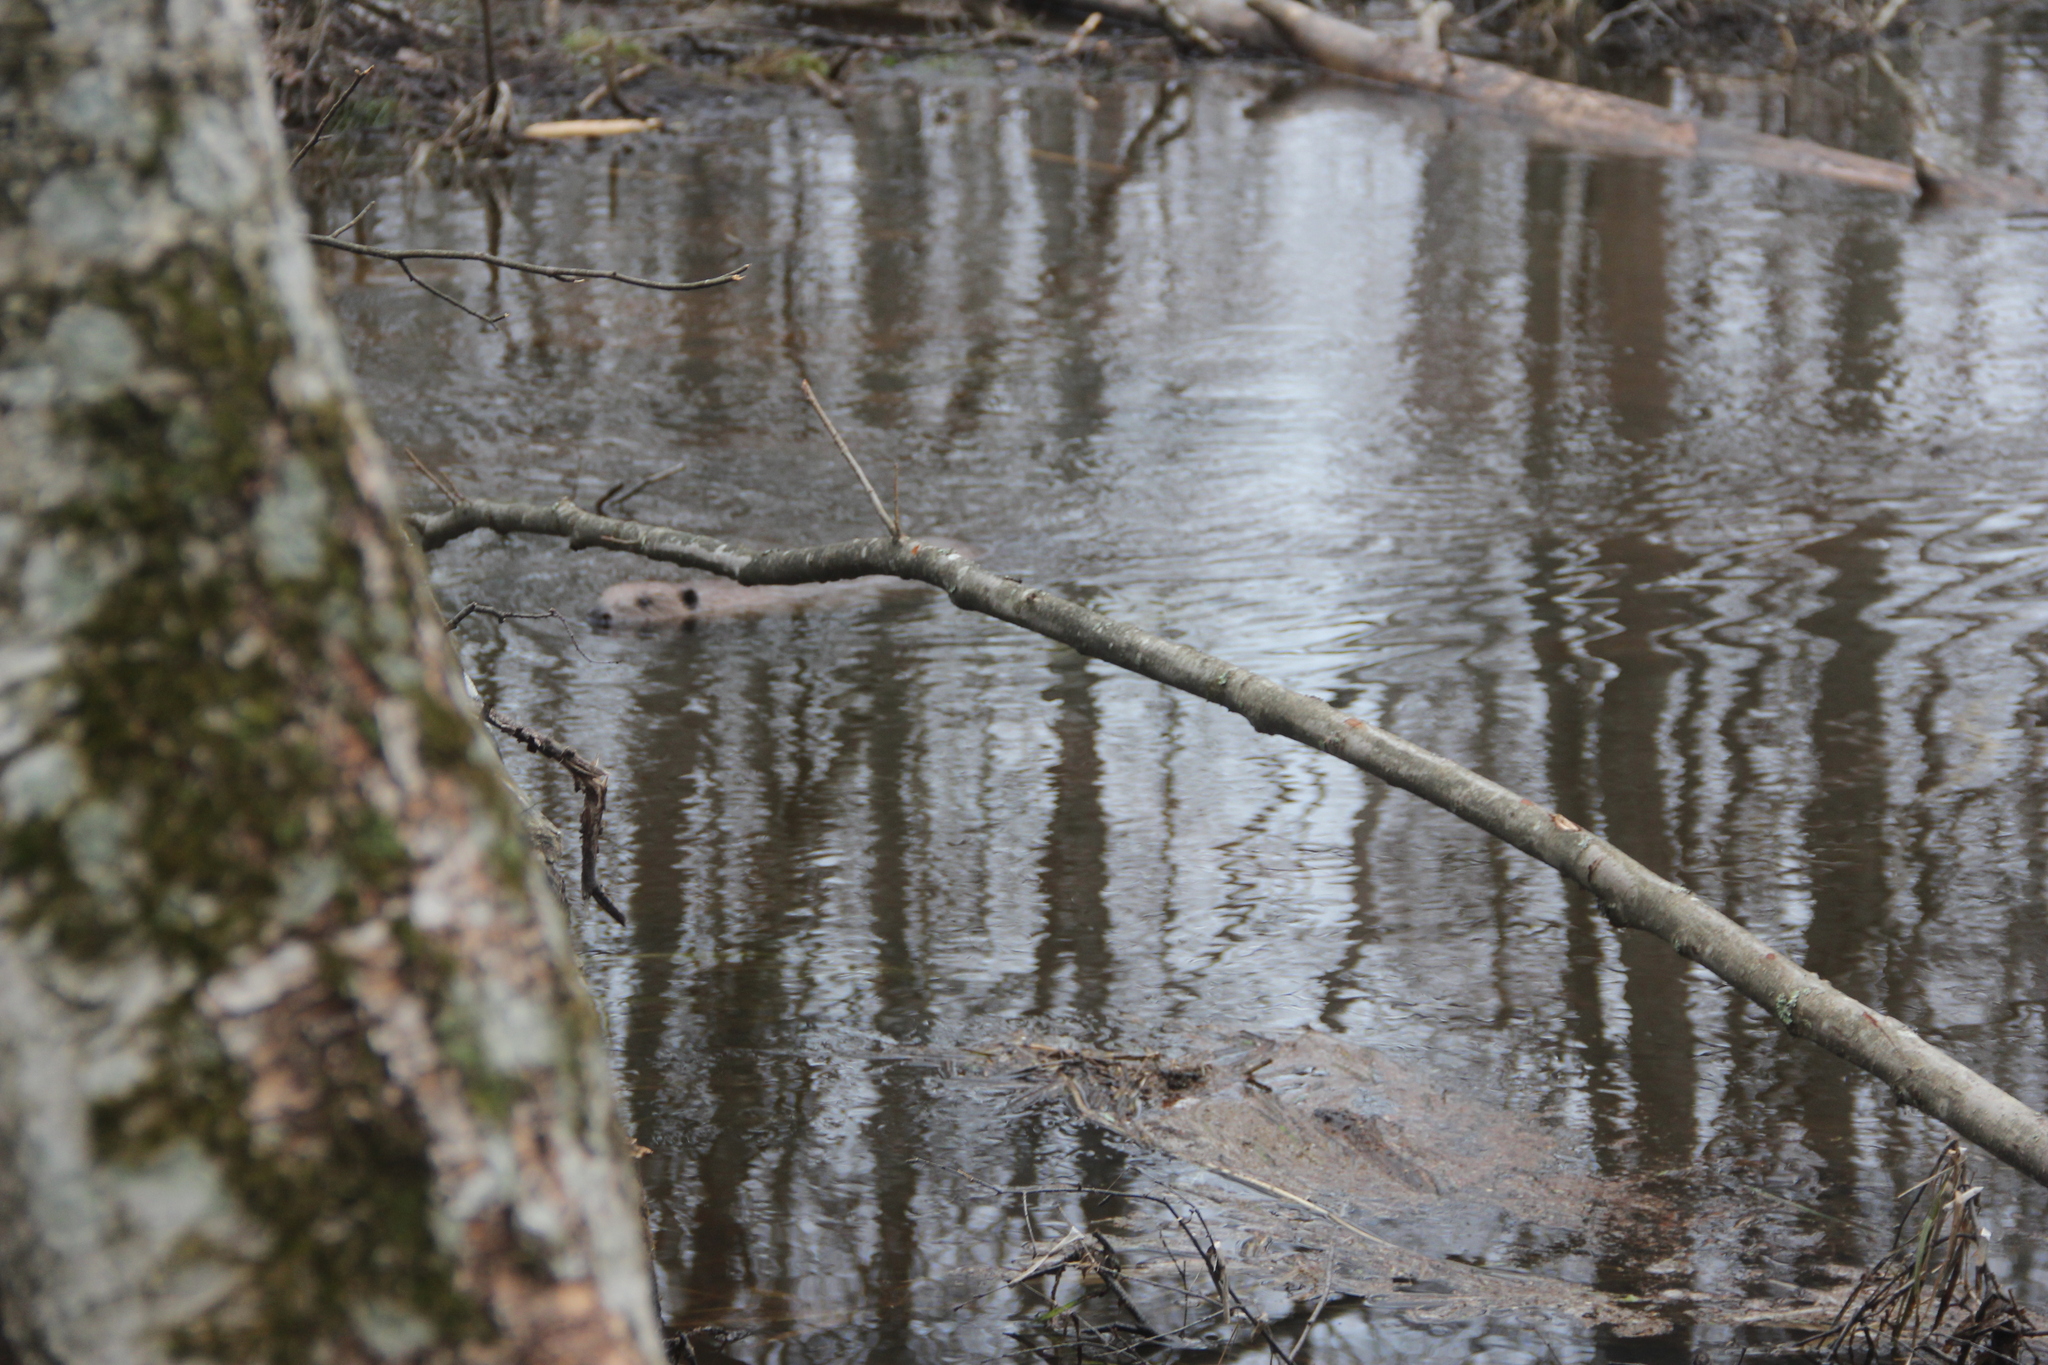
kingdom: Animalia
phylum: Chordata
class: Mammalia
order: Rodentia
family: Castoridae
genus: Castor
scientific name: Castor fiber
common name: Eurasian beaver
